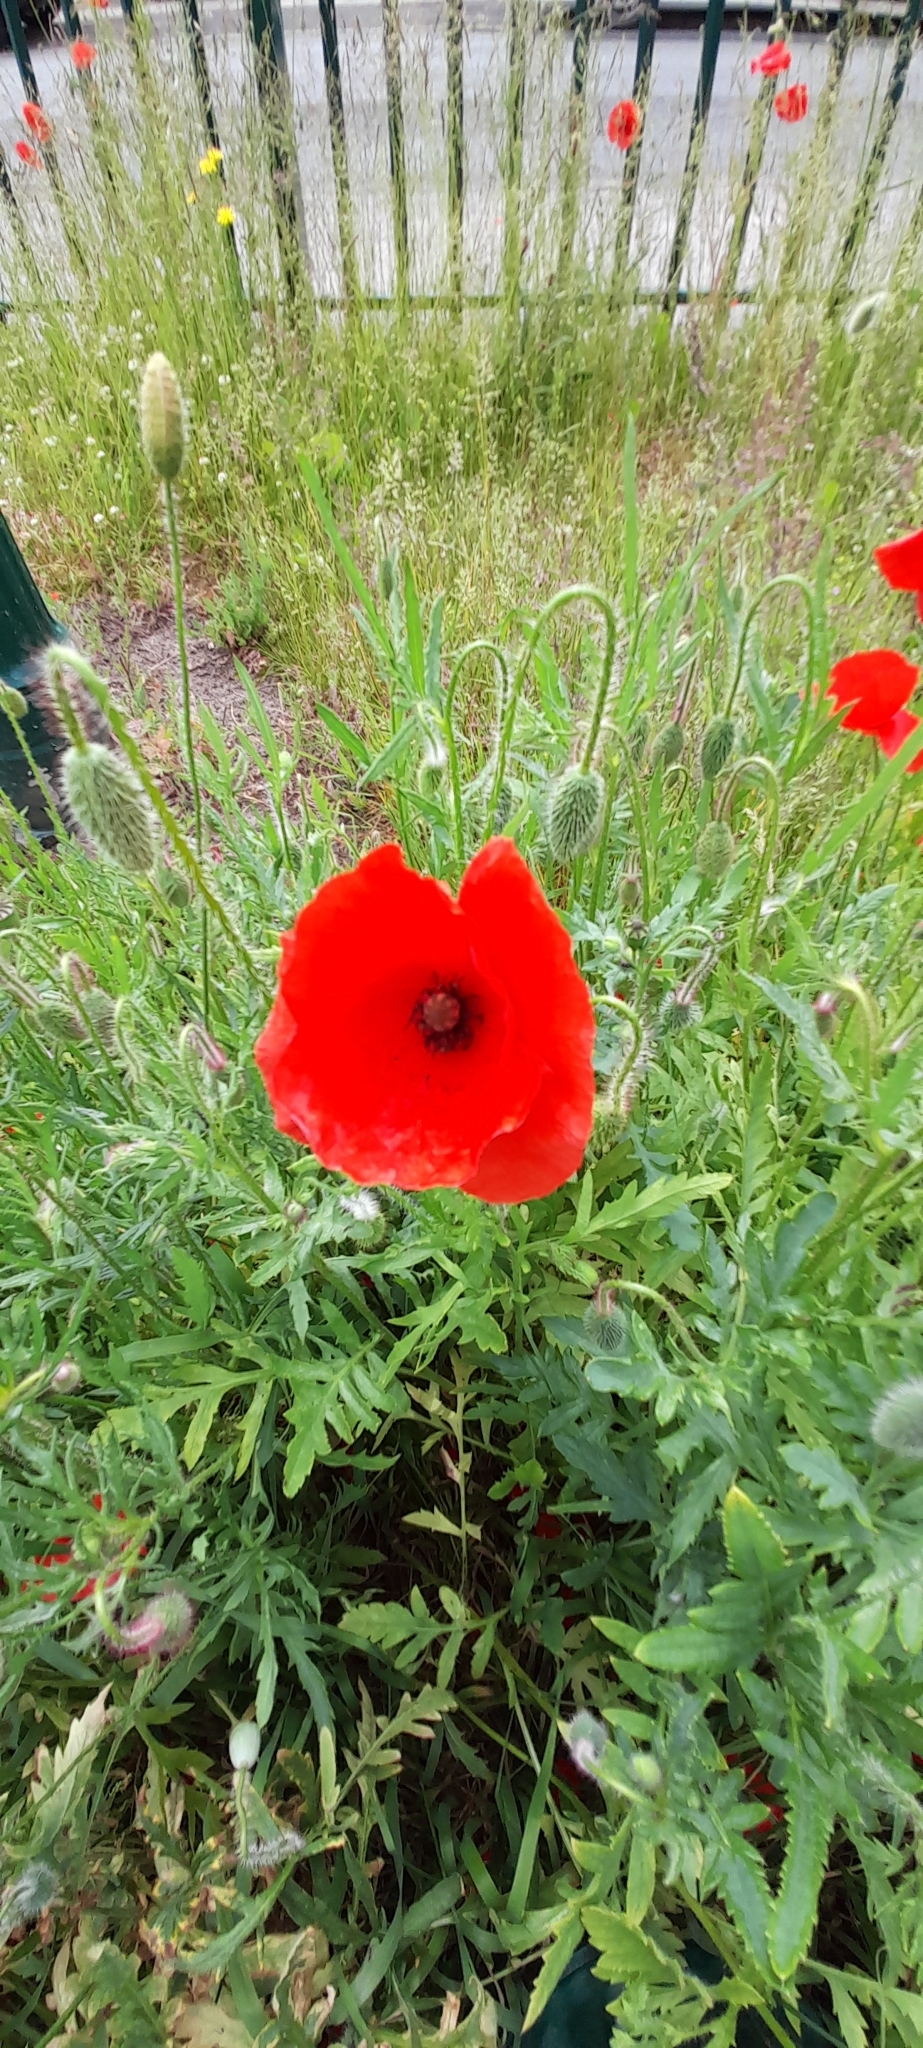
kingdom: Plantae
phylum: Tracheophyta
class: Magnoliopsida
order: Ranunculales
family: Papaveraceae
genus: Papaver
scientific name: Papaver rhoeas
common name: Corn poppy
